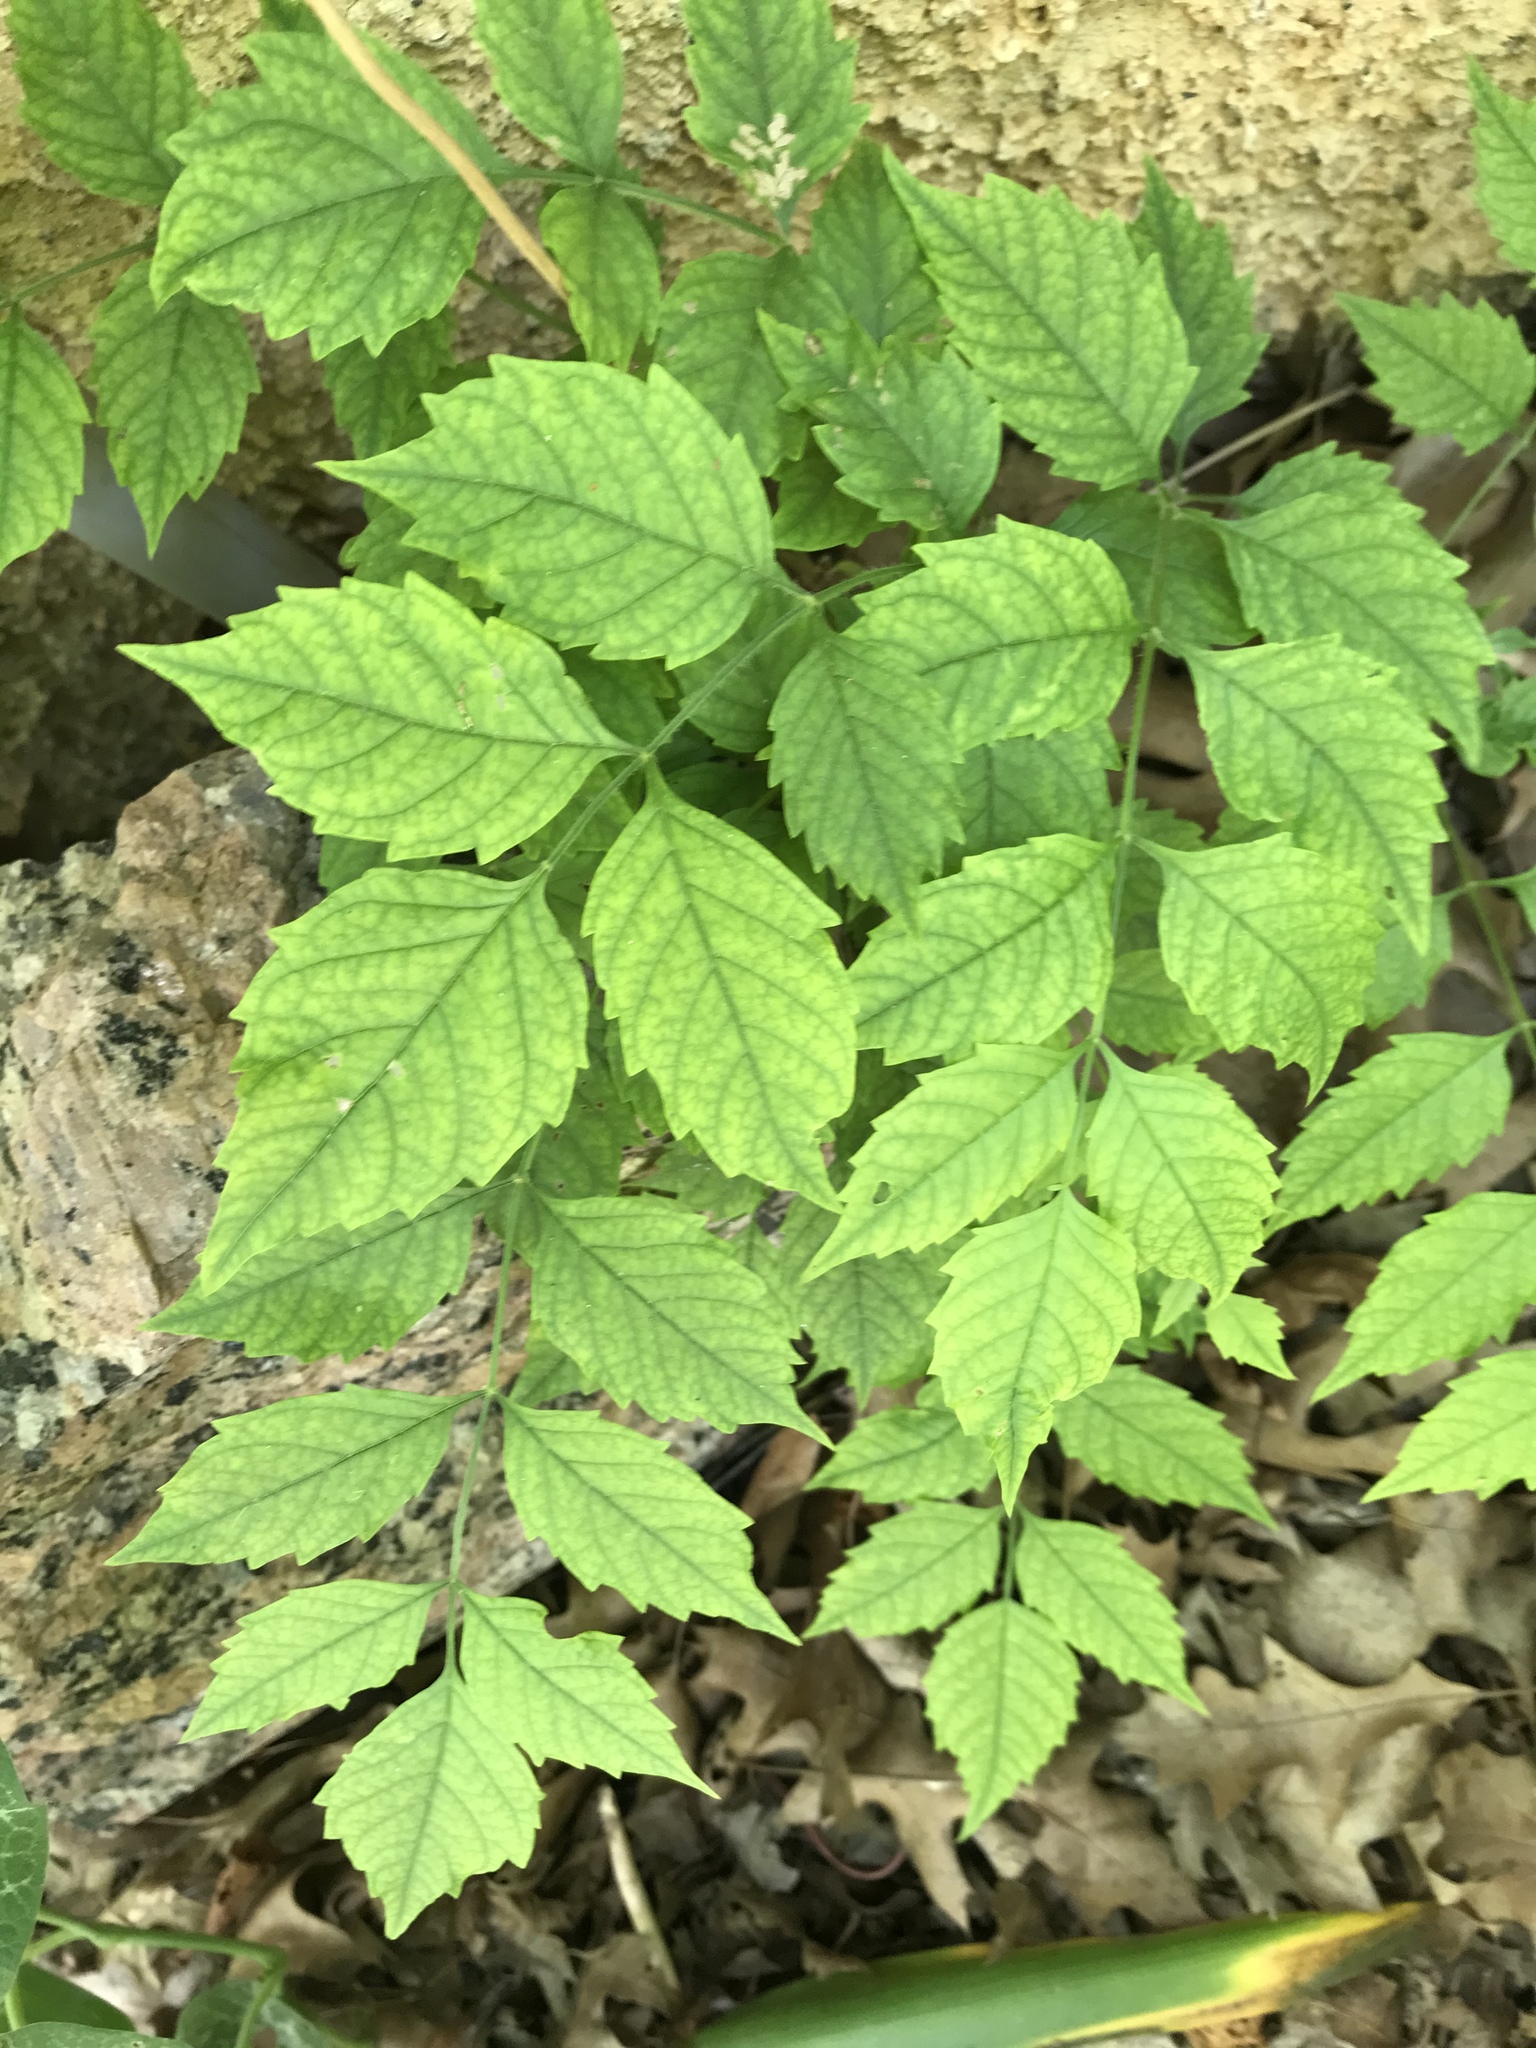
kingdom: Plantae
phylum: Tracheophyta
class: Magnoliopsida
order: Lamiales
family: Bignoniaceae
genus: Campsis
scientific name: Campsis radicans
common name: Trumpet-creeper
